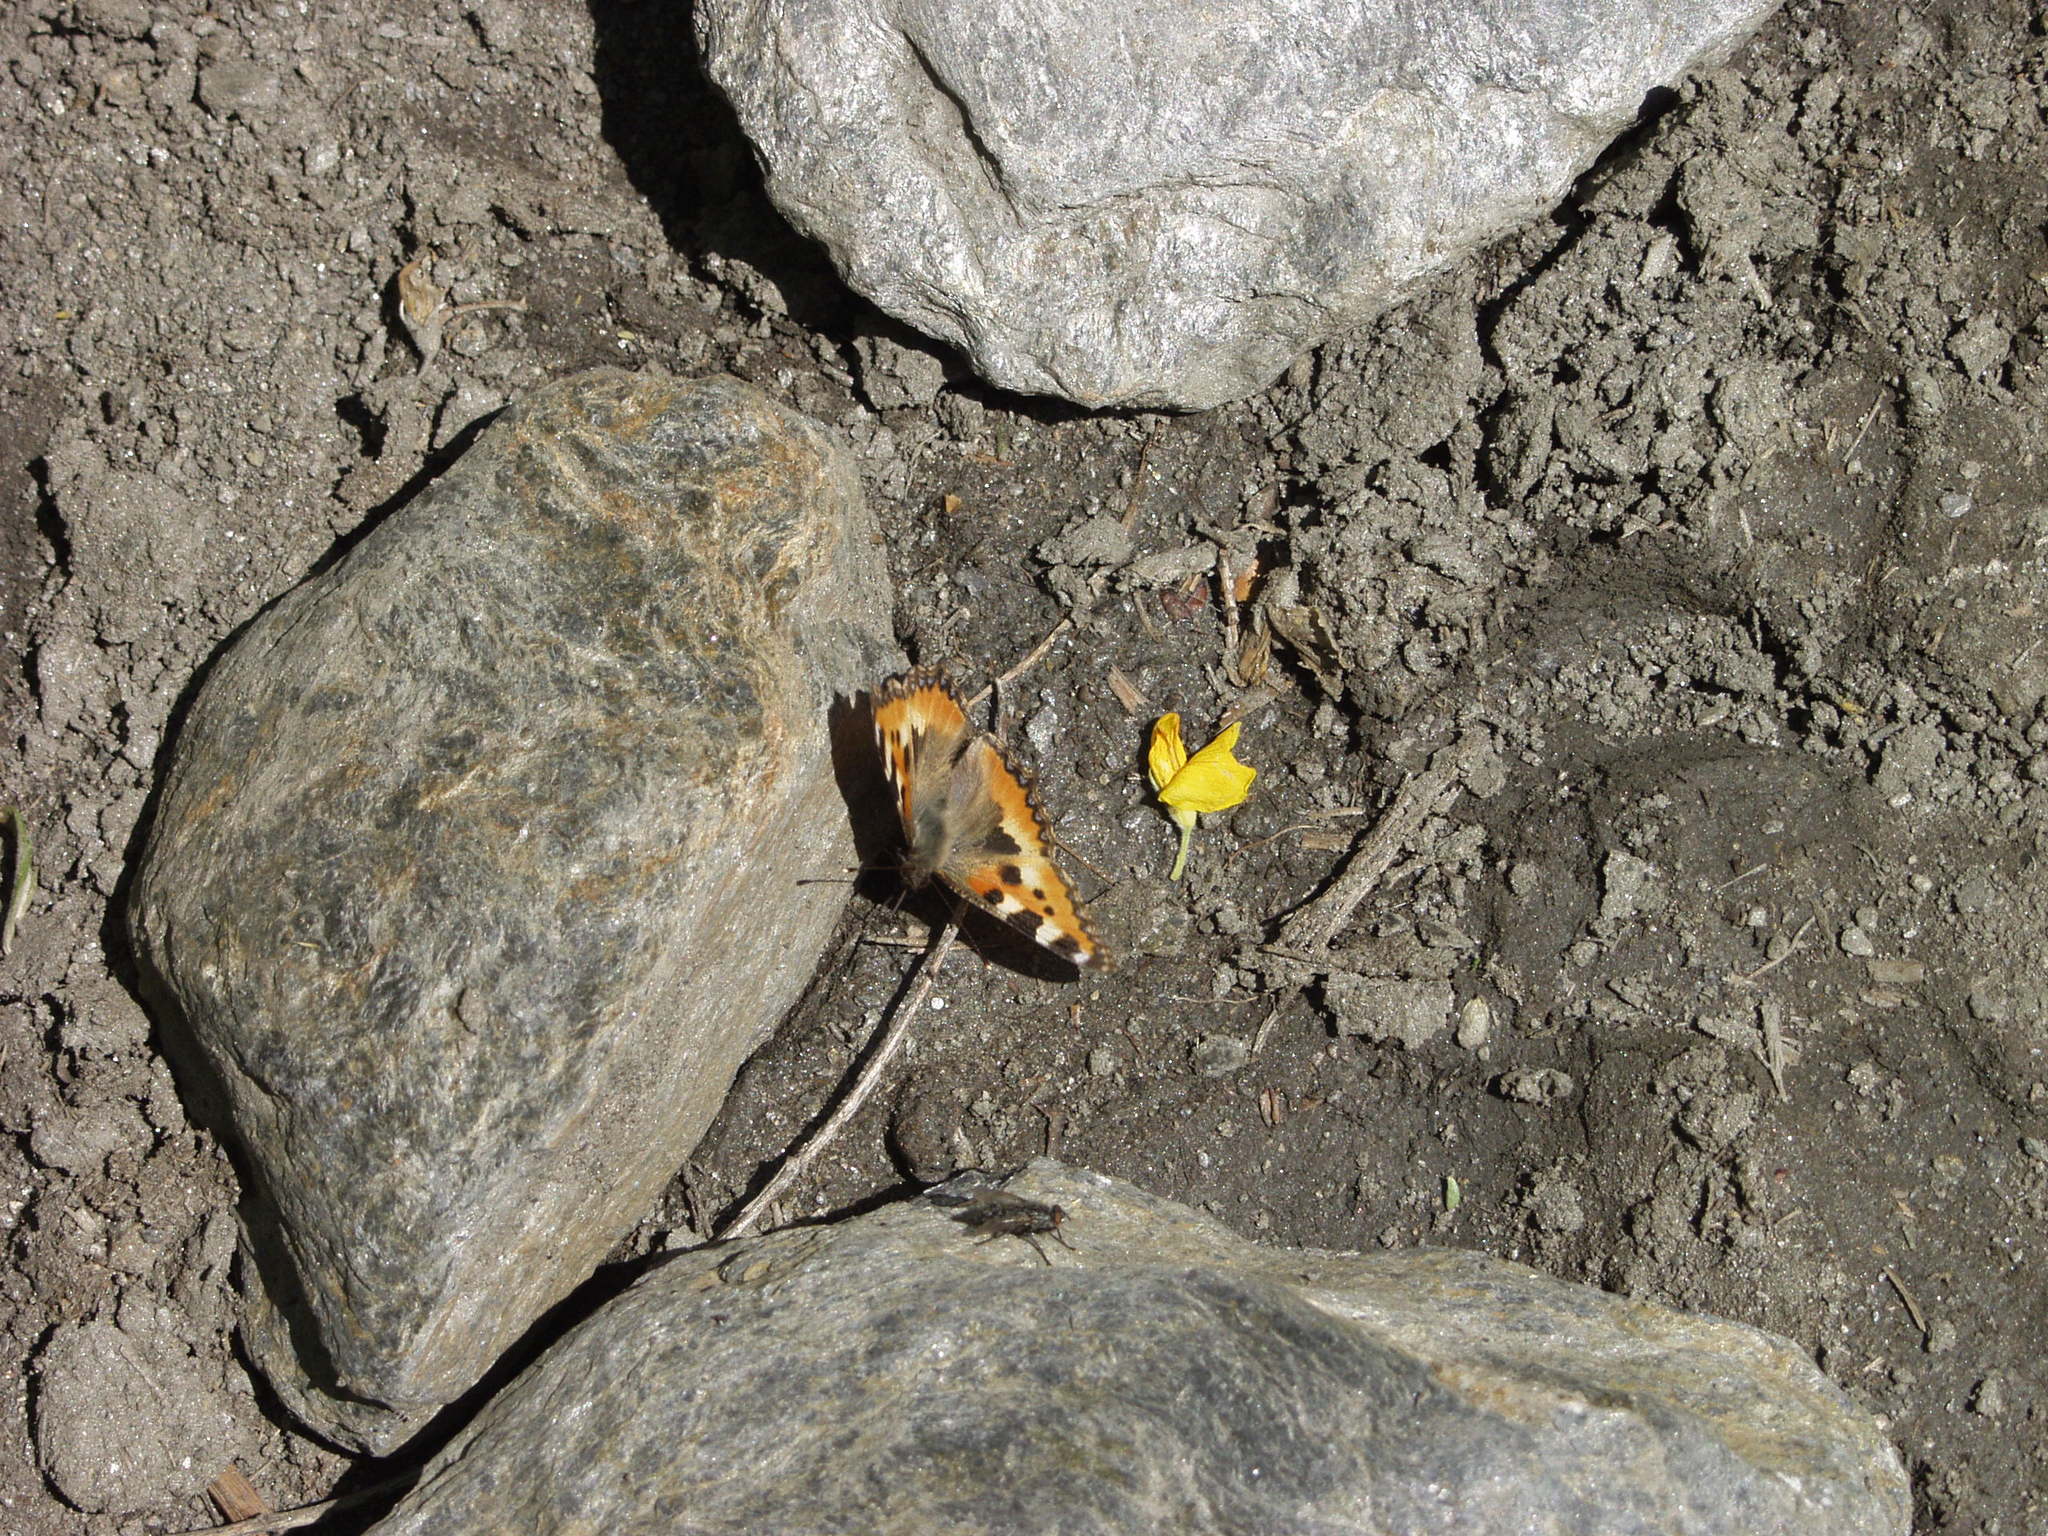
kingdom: Animalia
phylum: Arthropoda
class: Insecta
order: Lepidoptera
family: Nymphalidae
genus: Aglais
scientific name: Aglais urticae
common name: Small tortoiseshell
